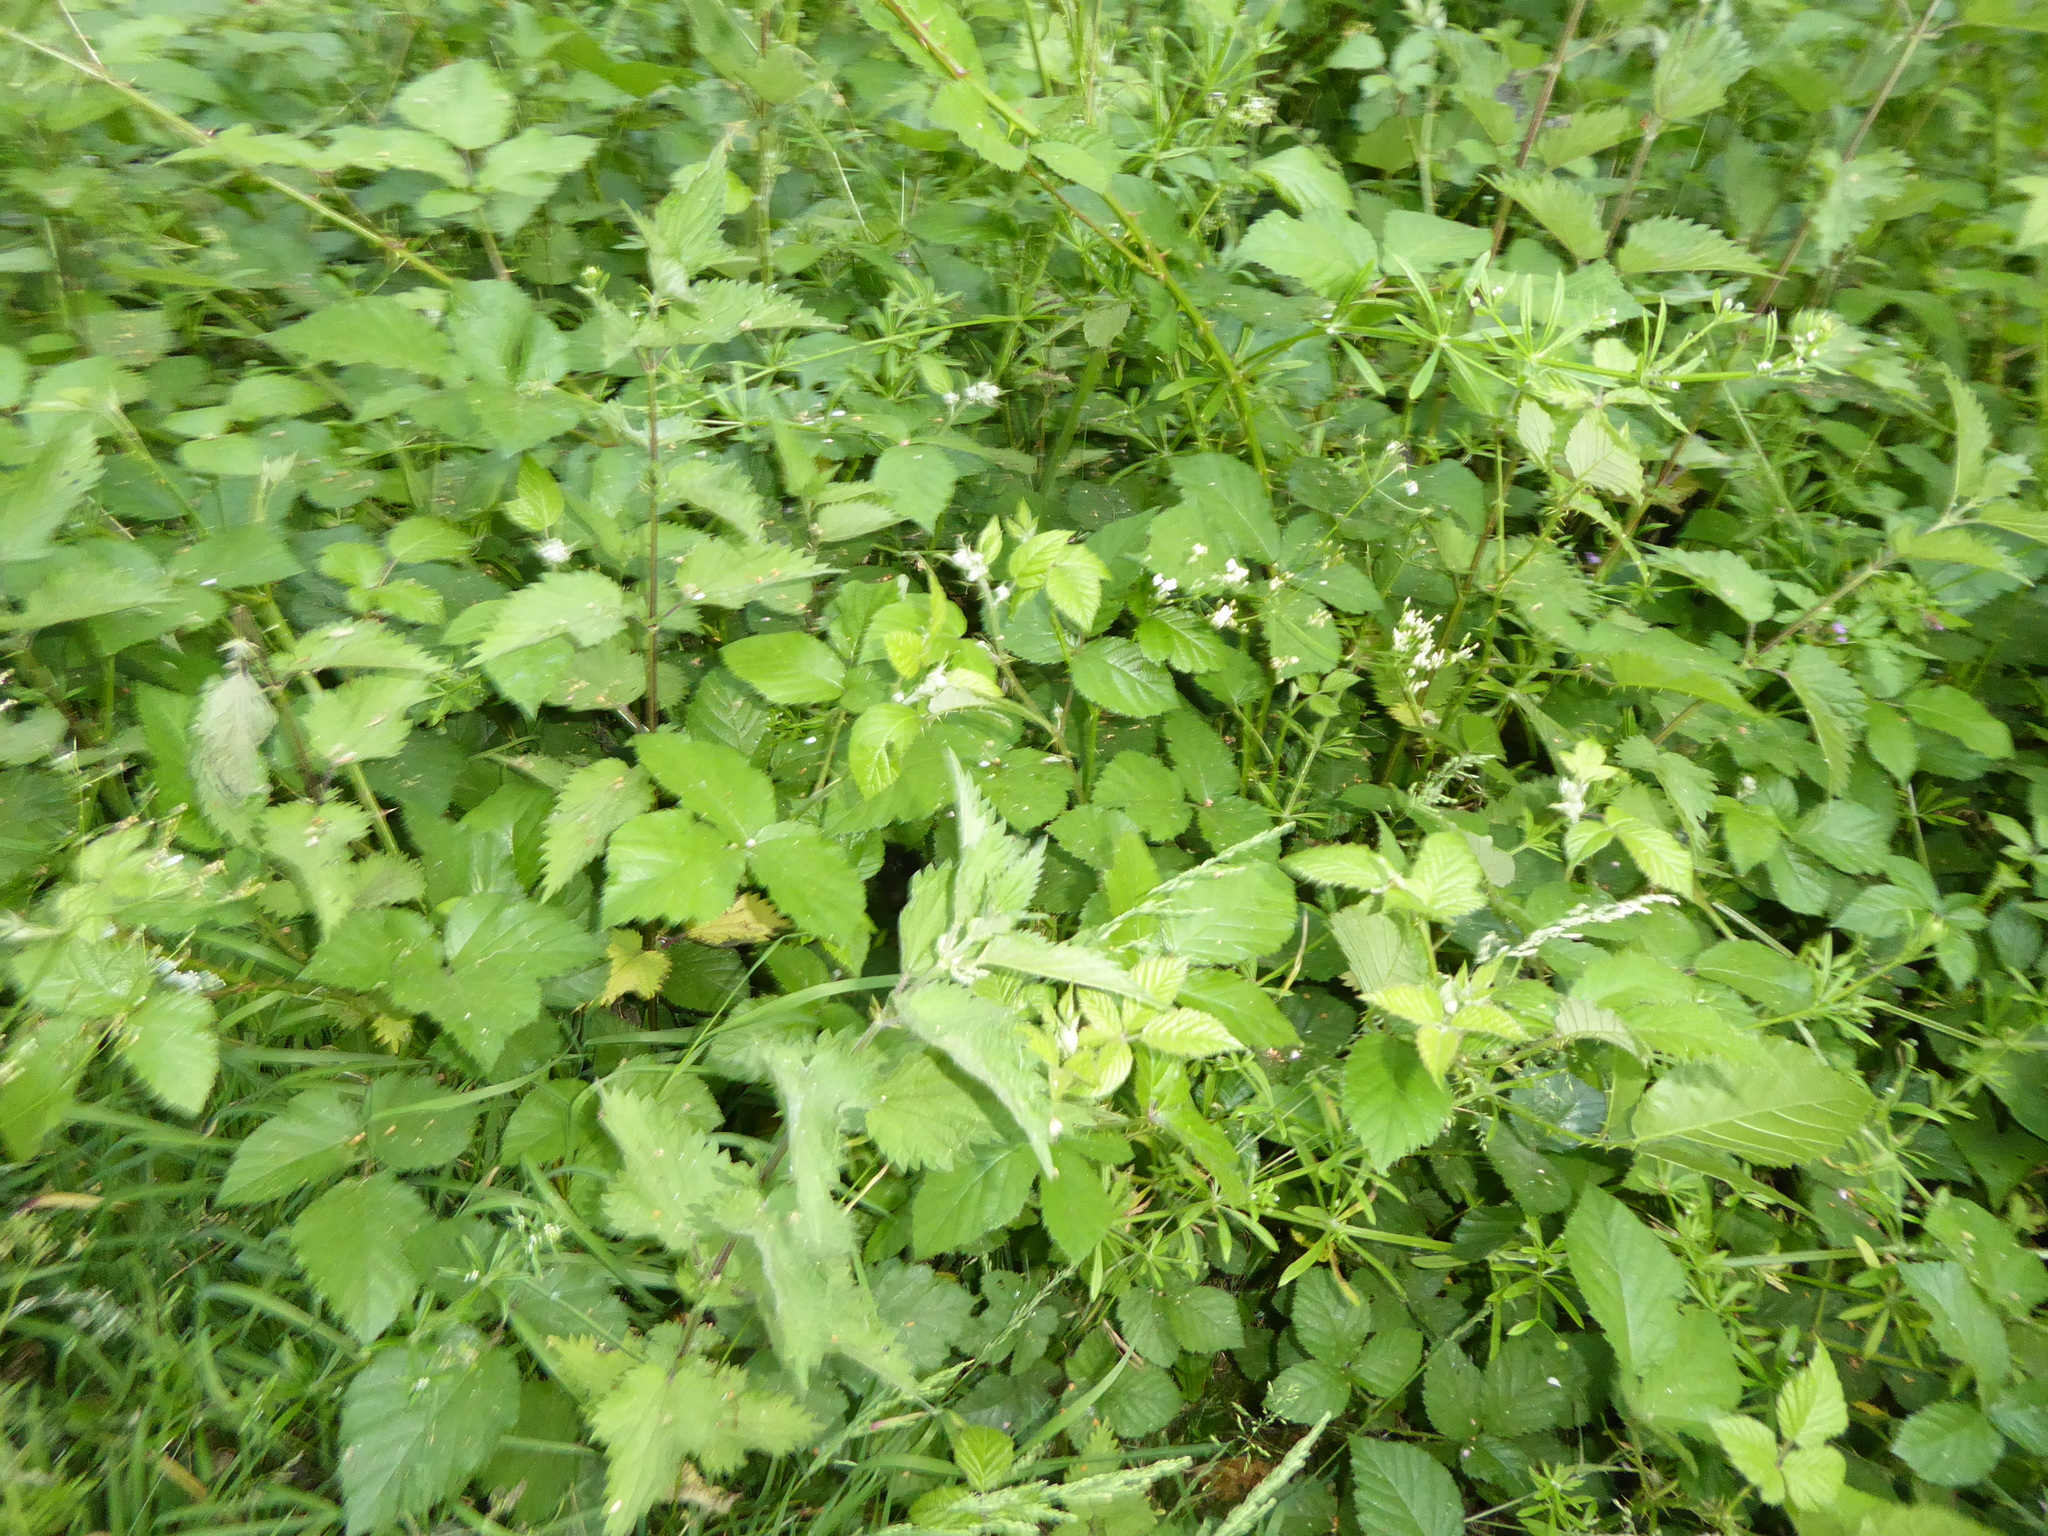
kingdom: Plantae
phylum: Tracheophyta
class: Magnoliopsida
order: Rosales
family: Urticaceae
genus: Urtica
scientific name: Urtica dioica
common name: Common nettle
